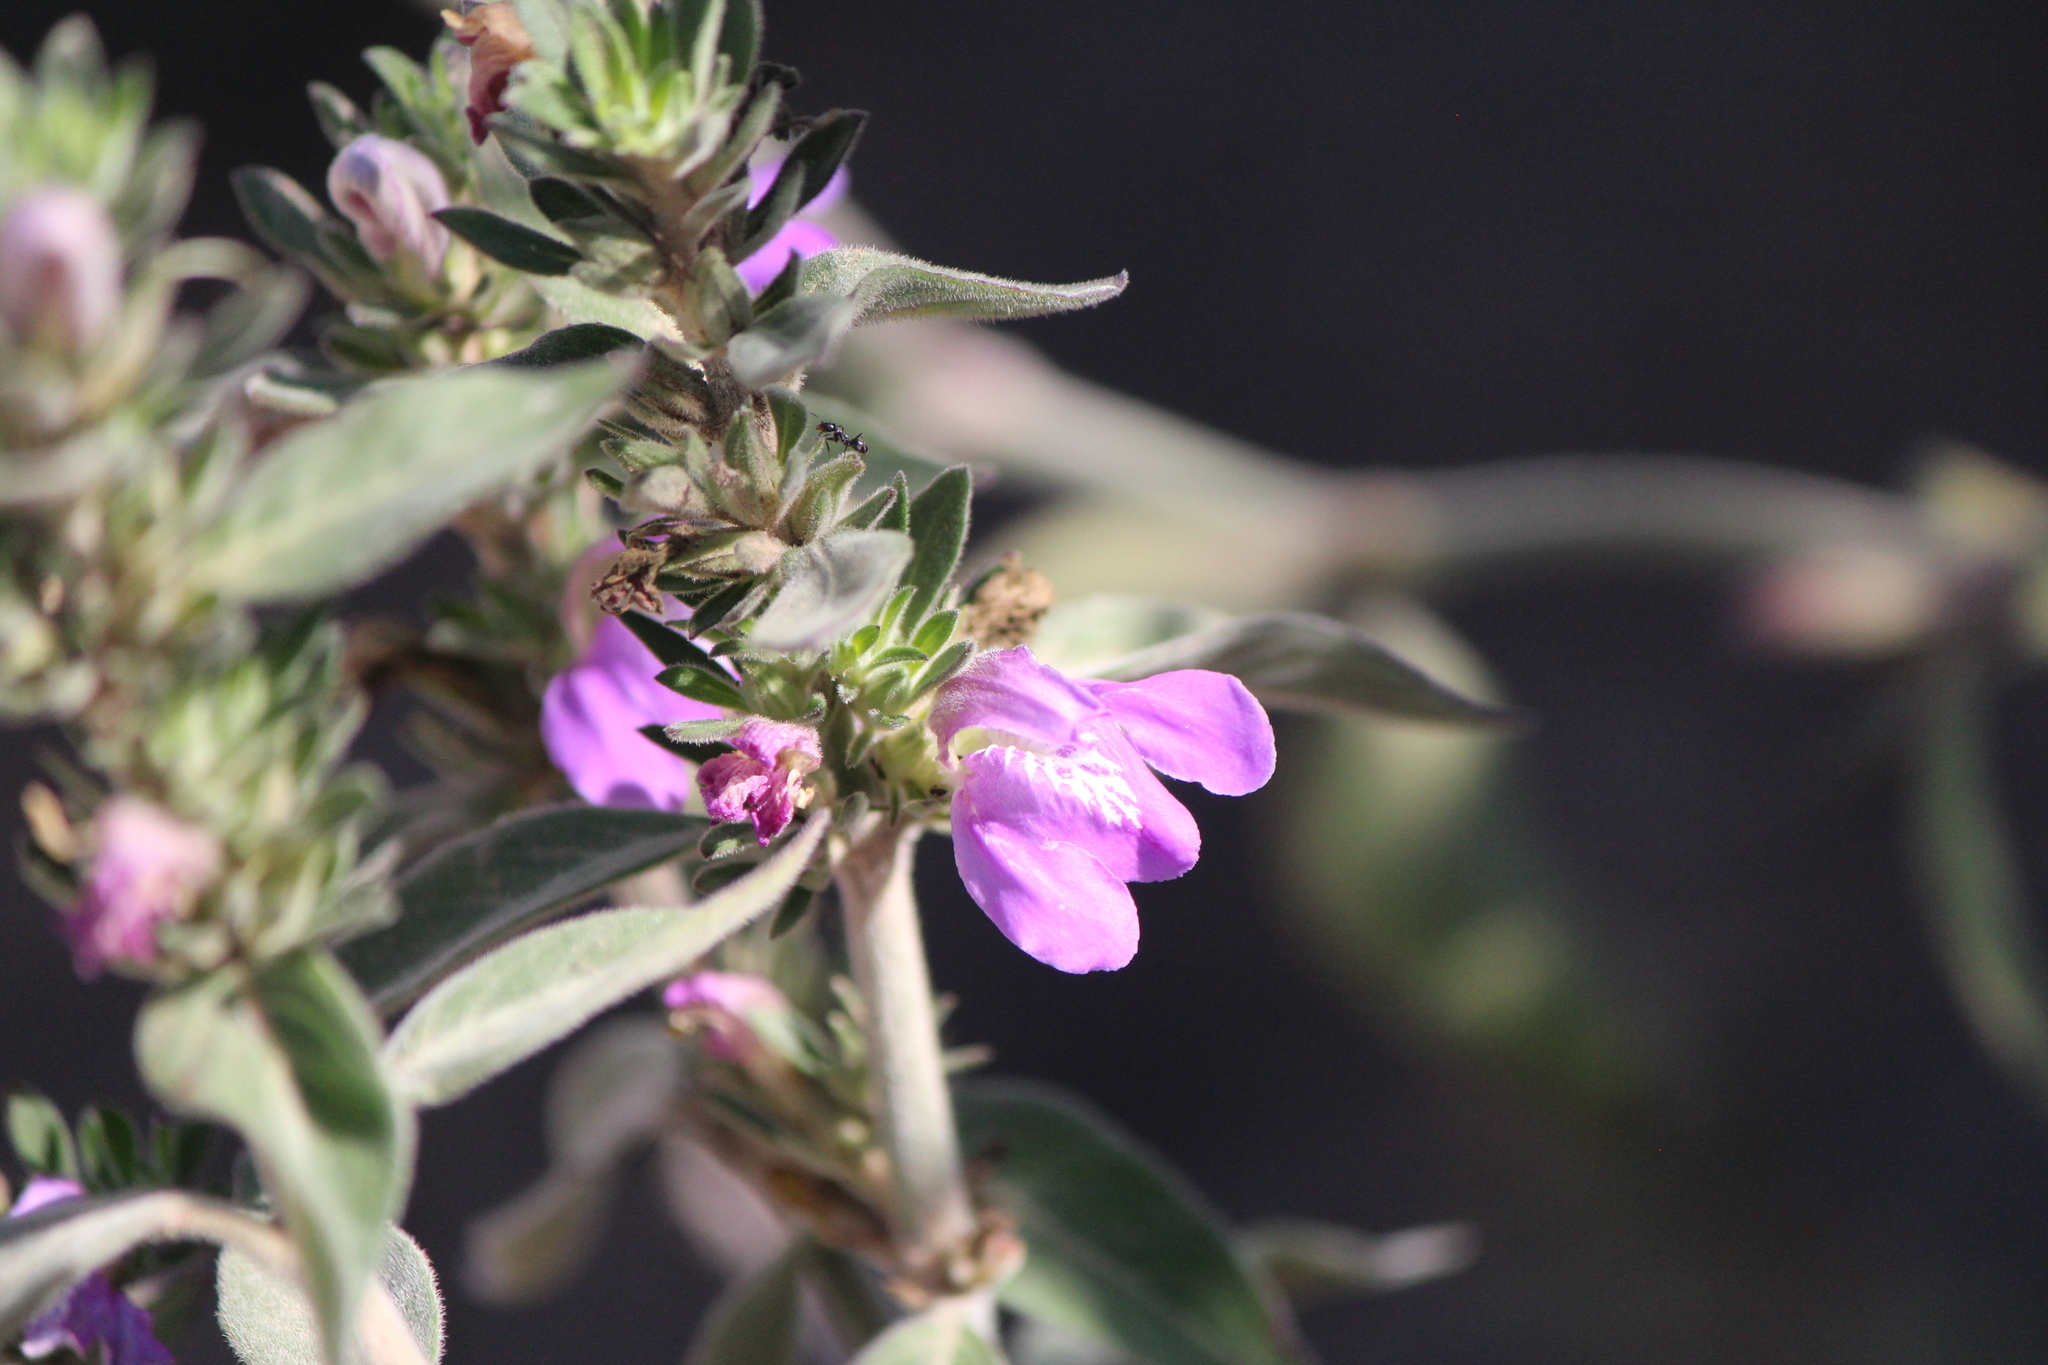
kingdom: Plantae
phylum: Tracheophyta
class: Magnoliopsida
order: Lamiales
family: Acanthaceae
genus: Justicia
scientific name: Justicia furcata
